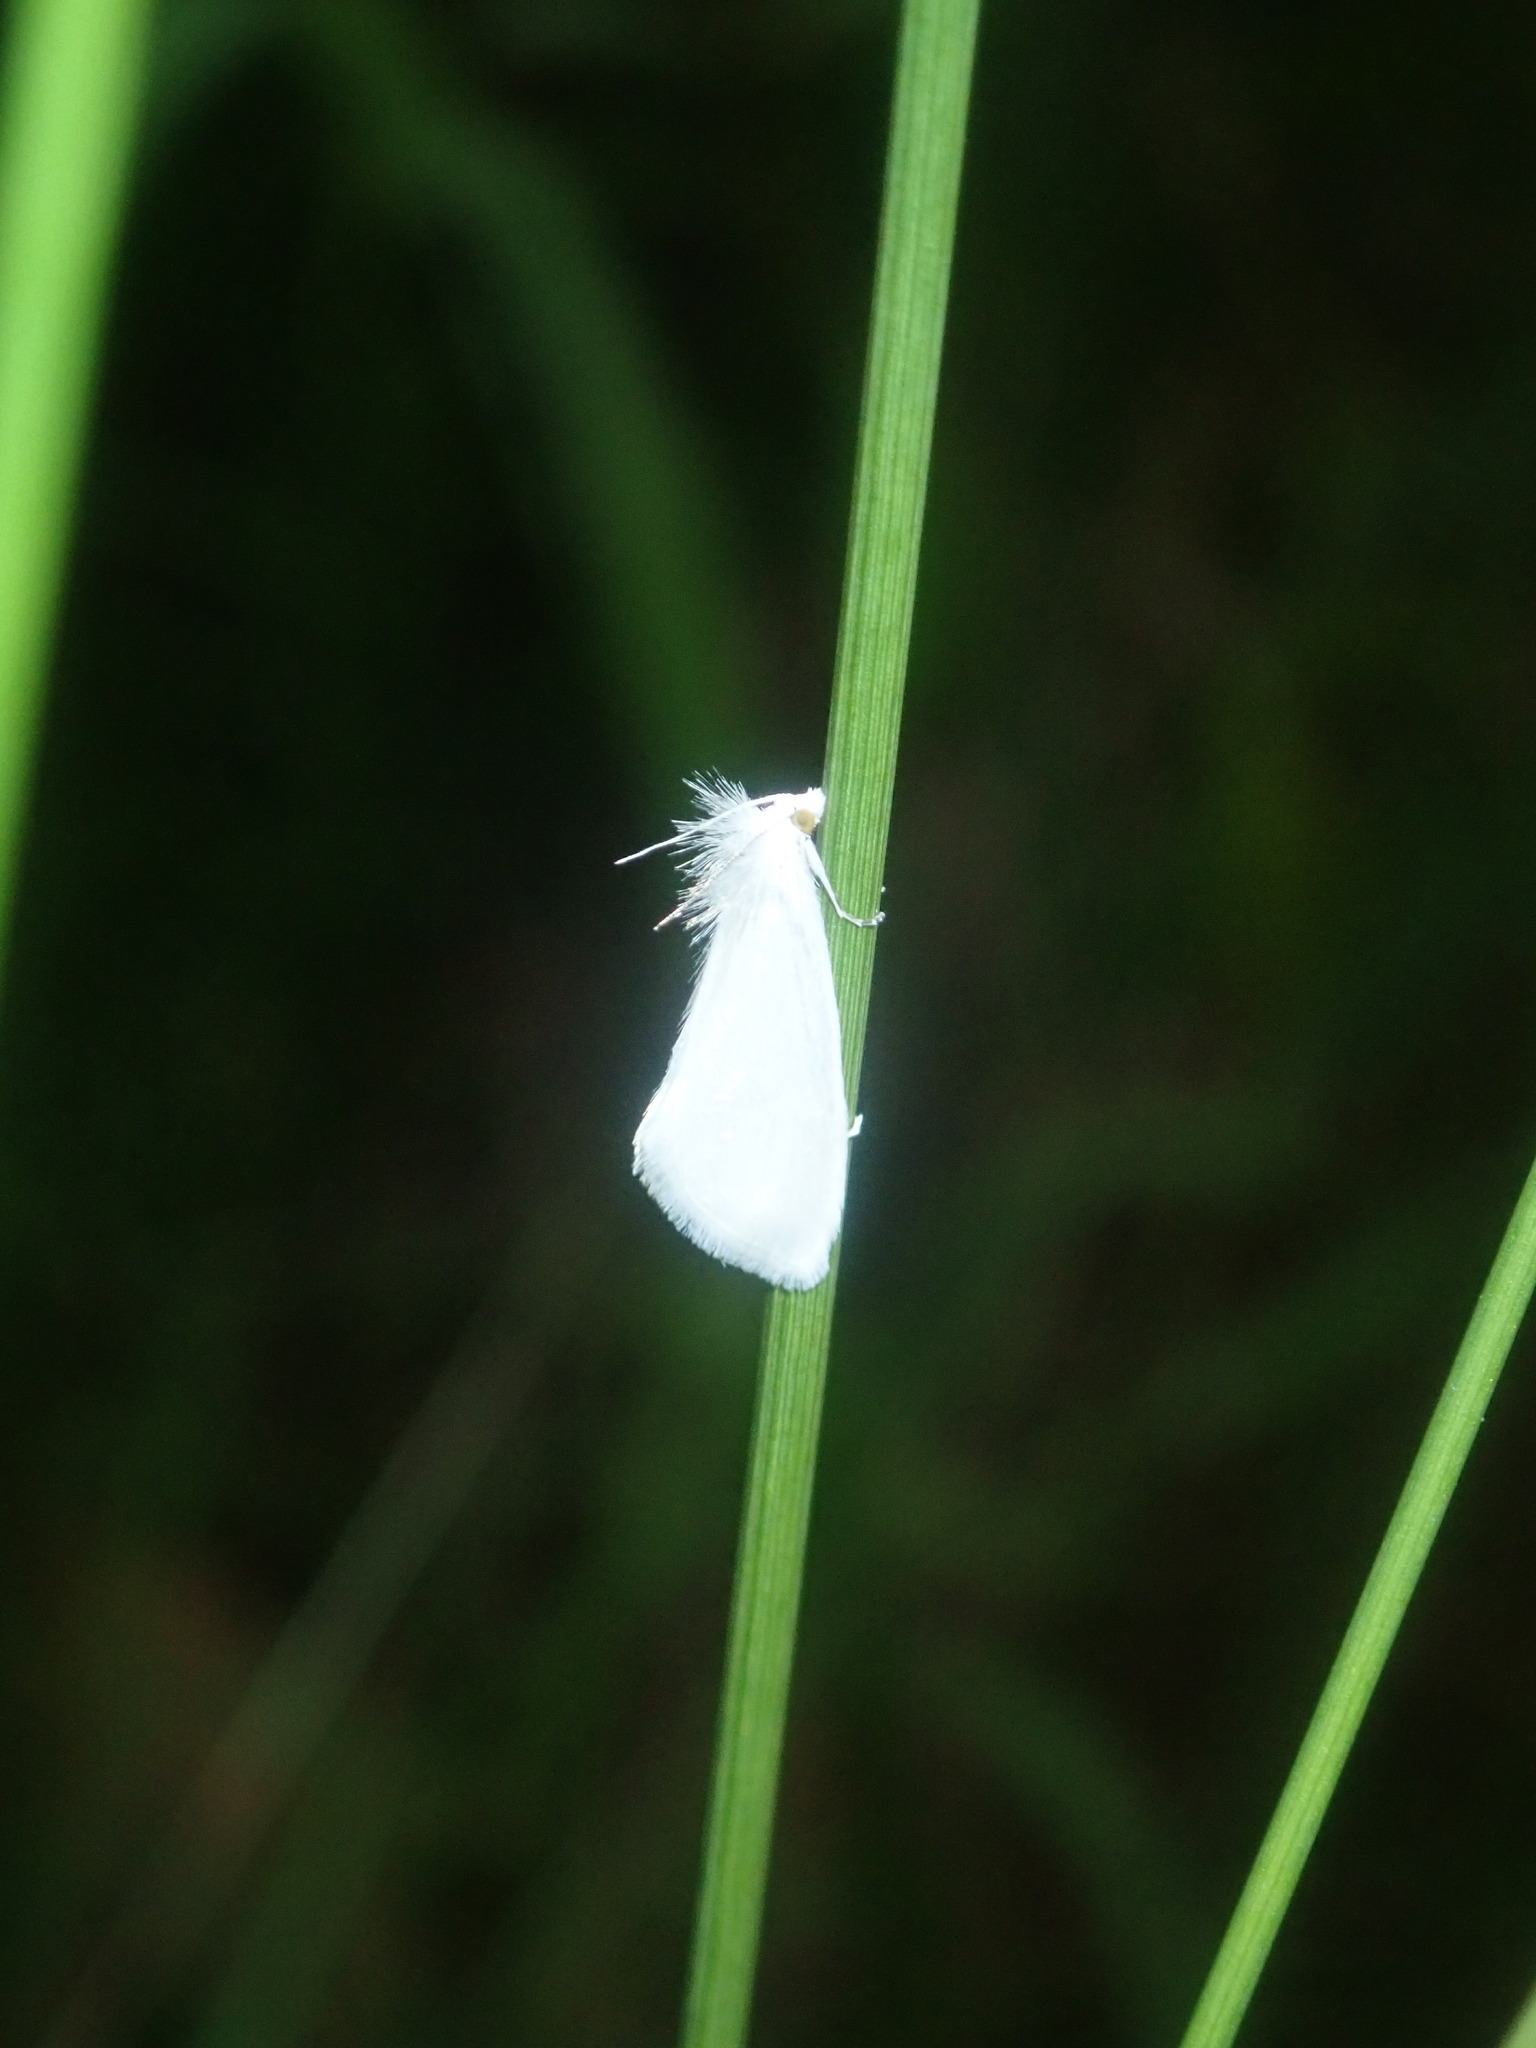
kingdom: Animalia
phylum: Arthropoda
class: Insecta
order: Lepidoptera
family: Crambidae
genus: Tipanaea
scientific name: Tipanaea patulella
